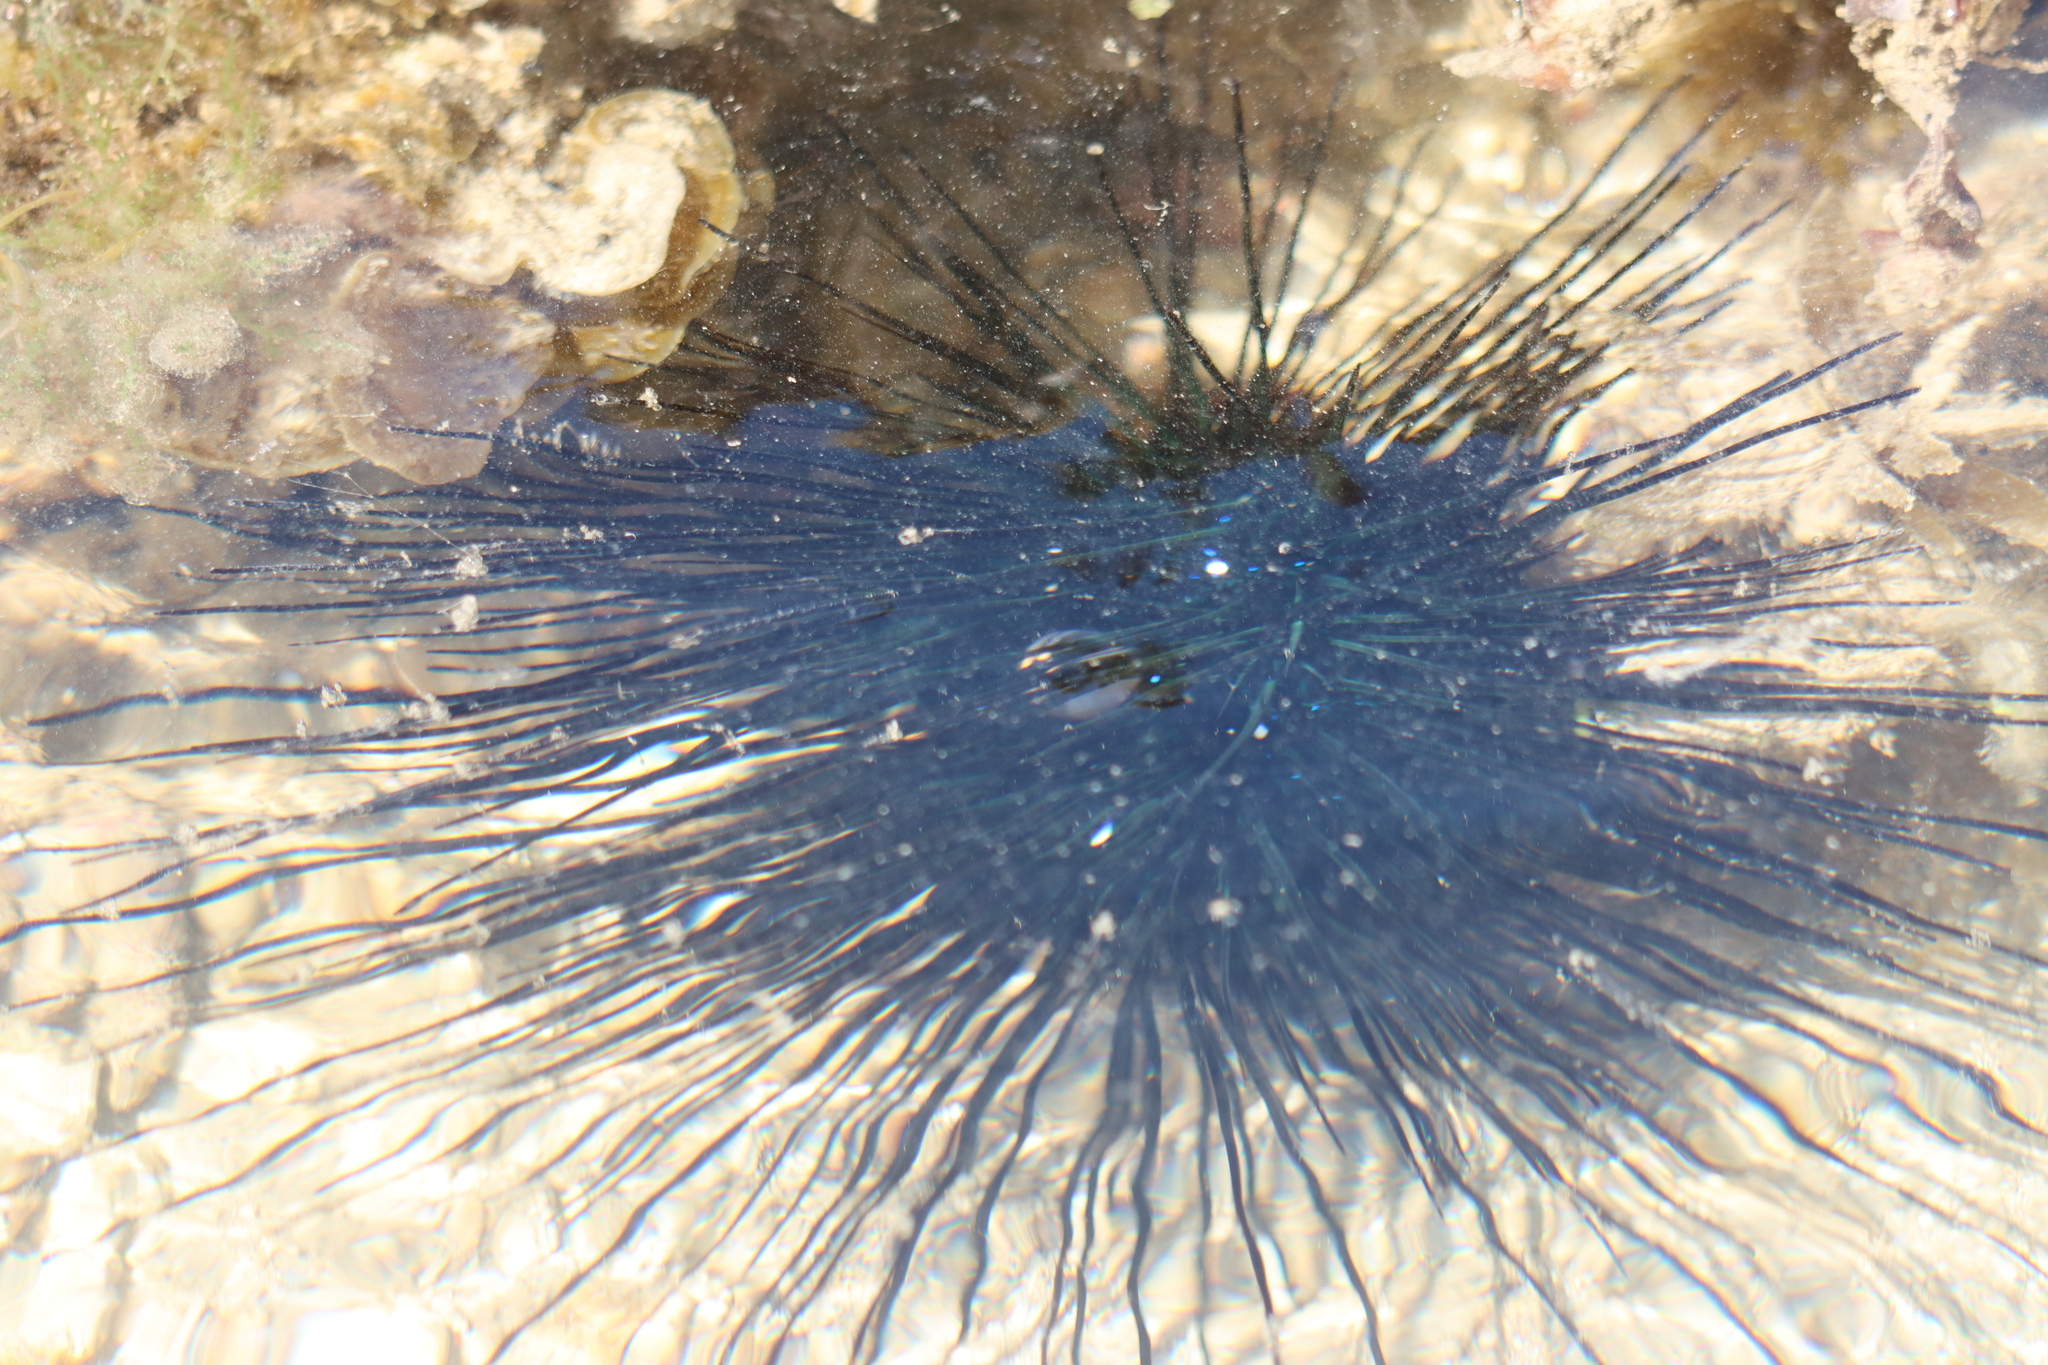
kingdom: Animalia
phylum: Echinodermata
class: Echinoidea
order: Diadematoida
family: Diadematidae
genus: Diadema
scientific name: Diadema setosum
